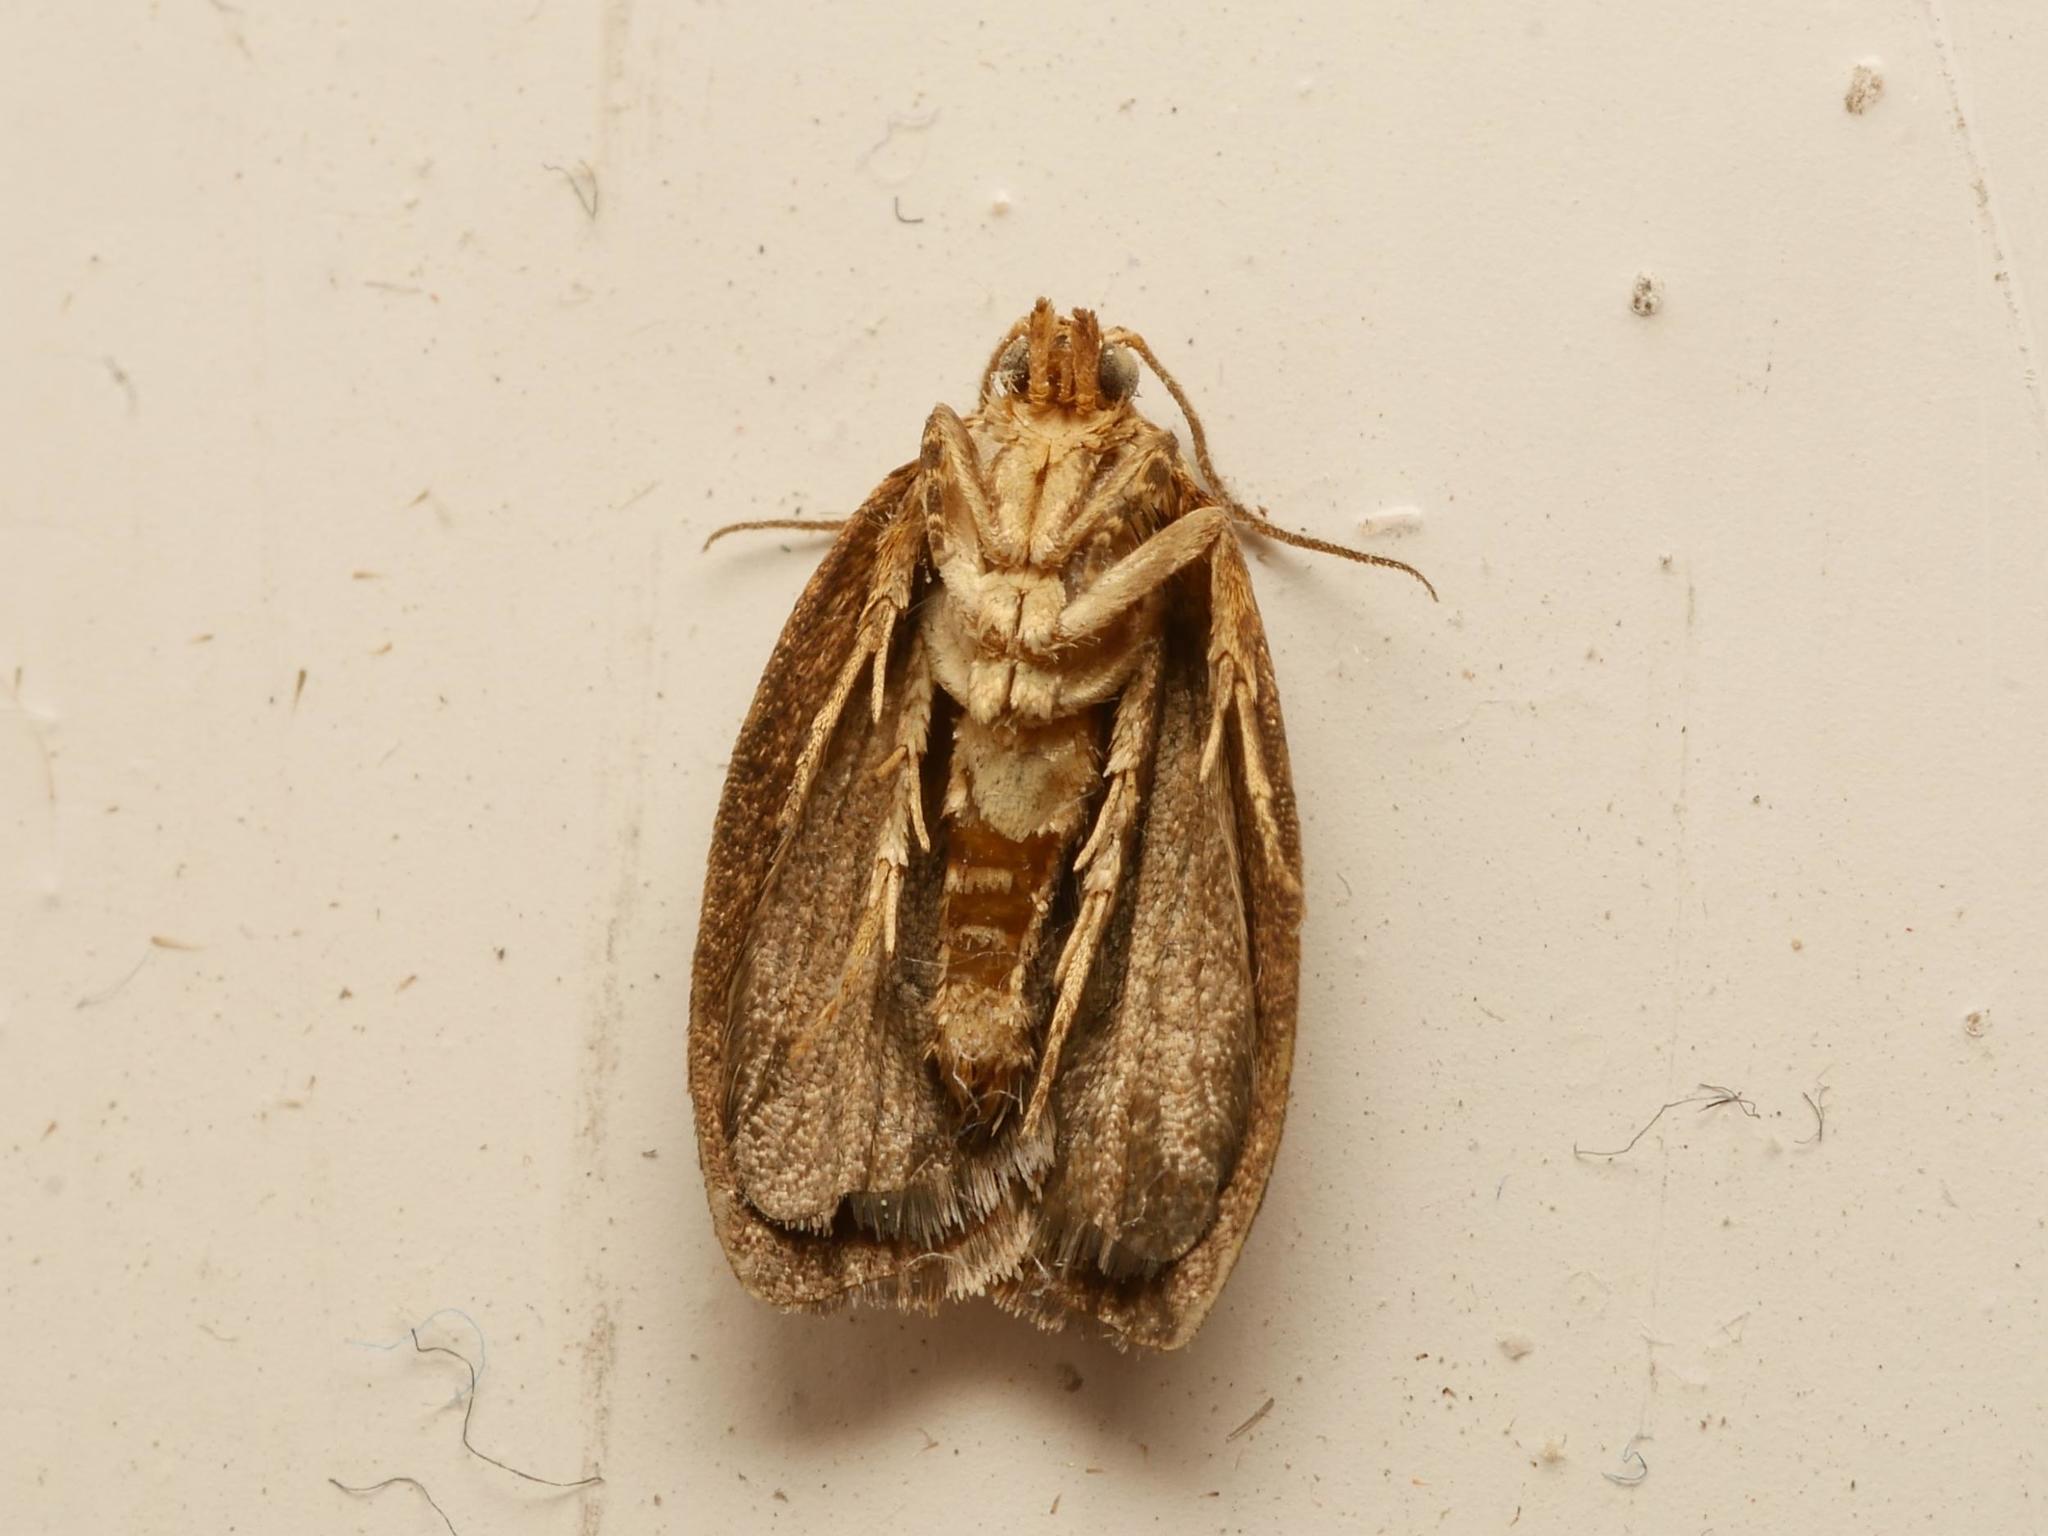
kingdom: Animalia
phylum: Arthropoda
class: Insecta
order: Lepidoptera
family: Tortricidae
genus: Clepsis
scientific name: Clepsis dumicolana
